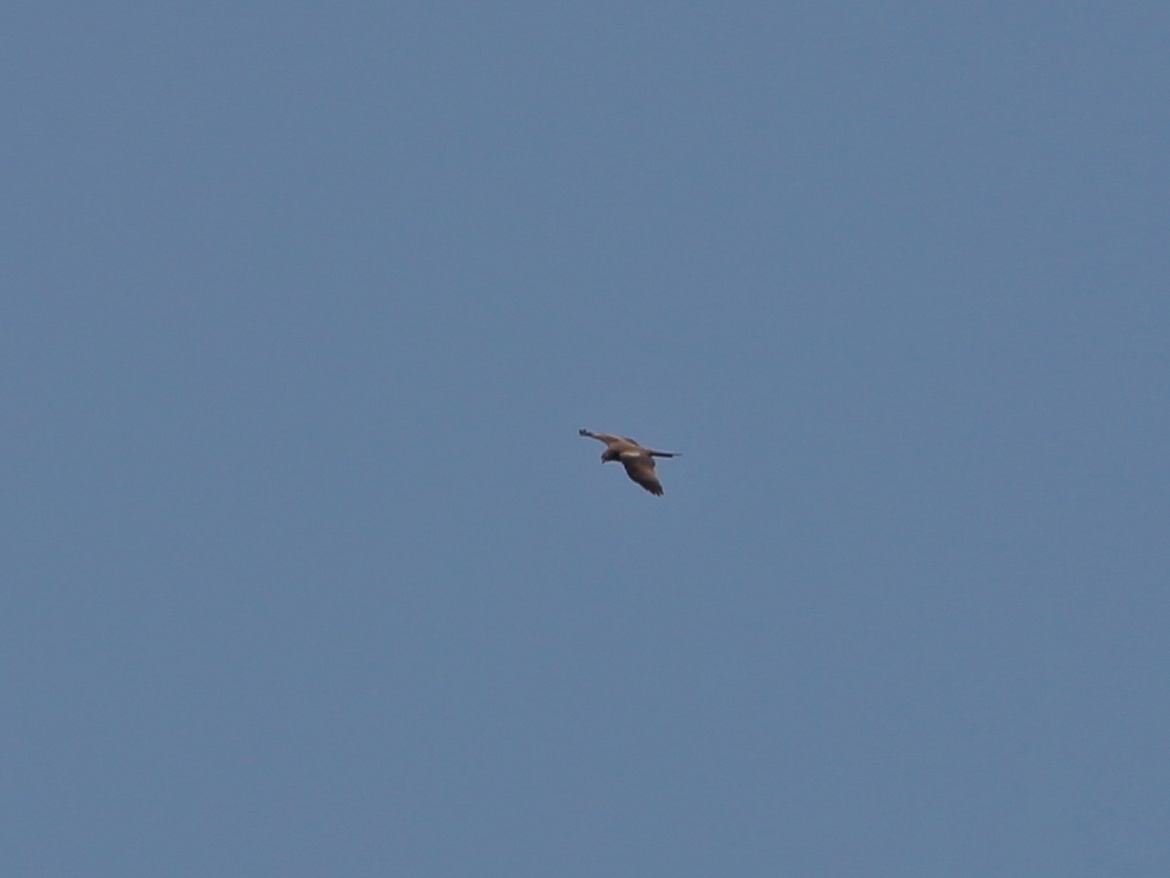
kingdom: Animalia
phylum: Chordata
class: Aves
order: Accipitriformes
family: Accipitridae
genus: Milvus
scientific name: Milvus migrans
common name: Black kite
